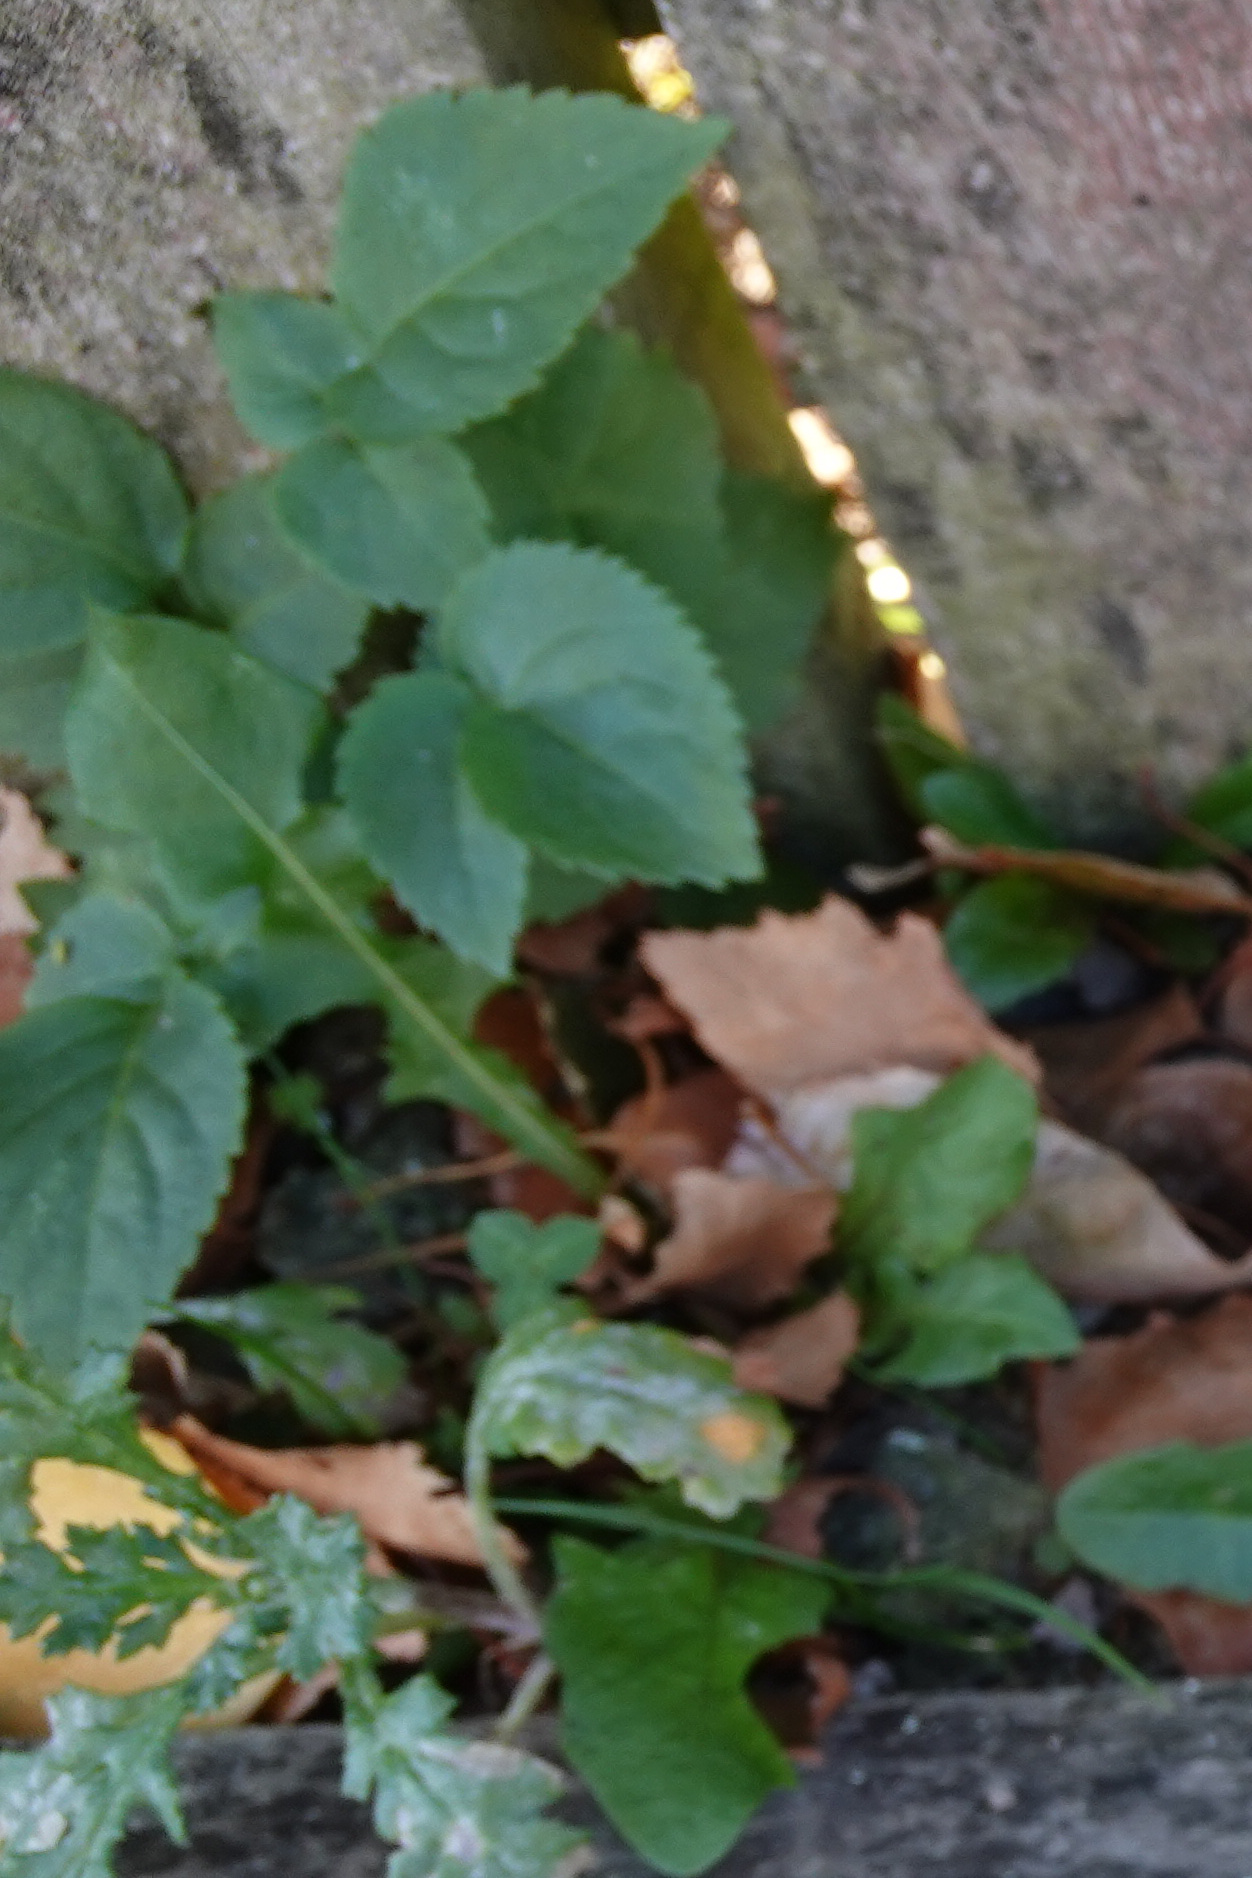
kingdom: Plantae
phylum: Tracheophyta
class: Magnoliopsida
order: Dipsacales
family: Viburnaceae
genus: Sambucus
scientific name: Sambucus nigra
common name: Elder
